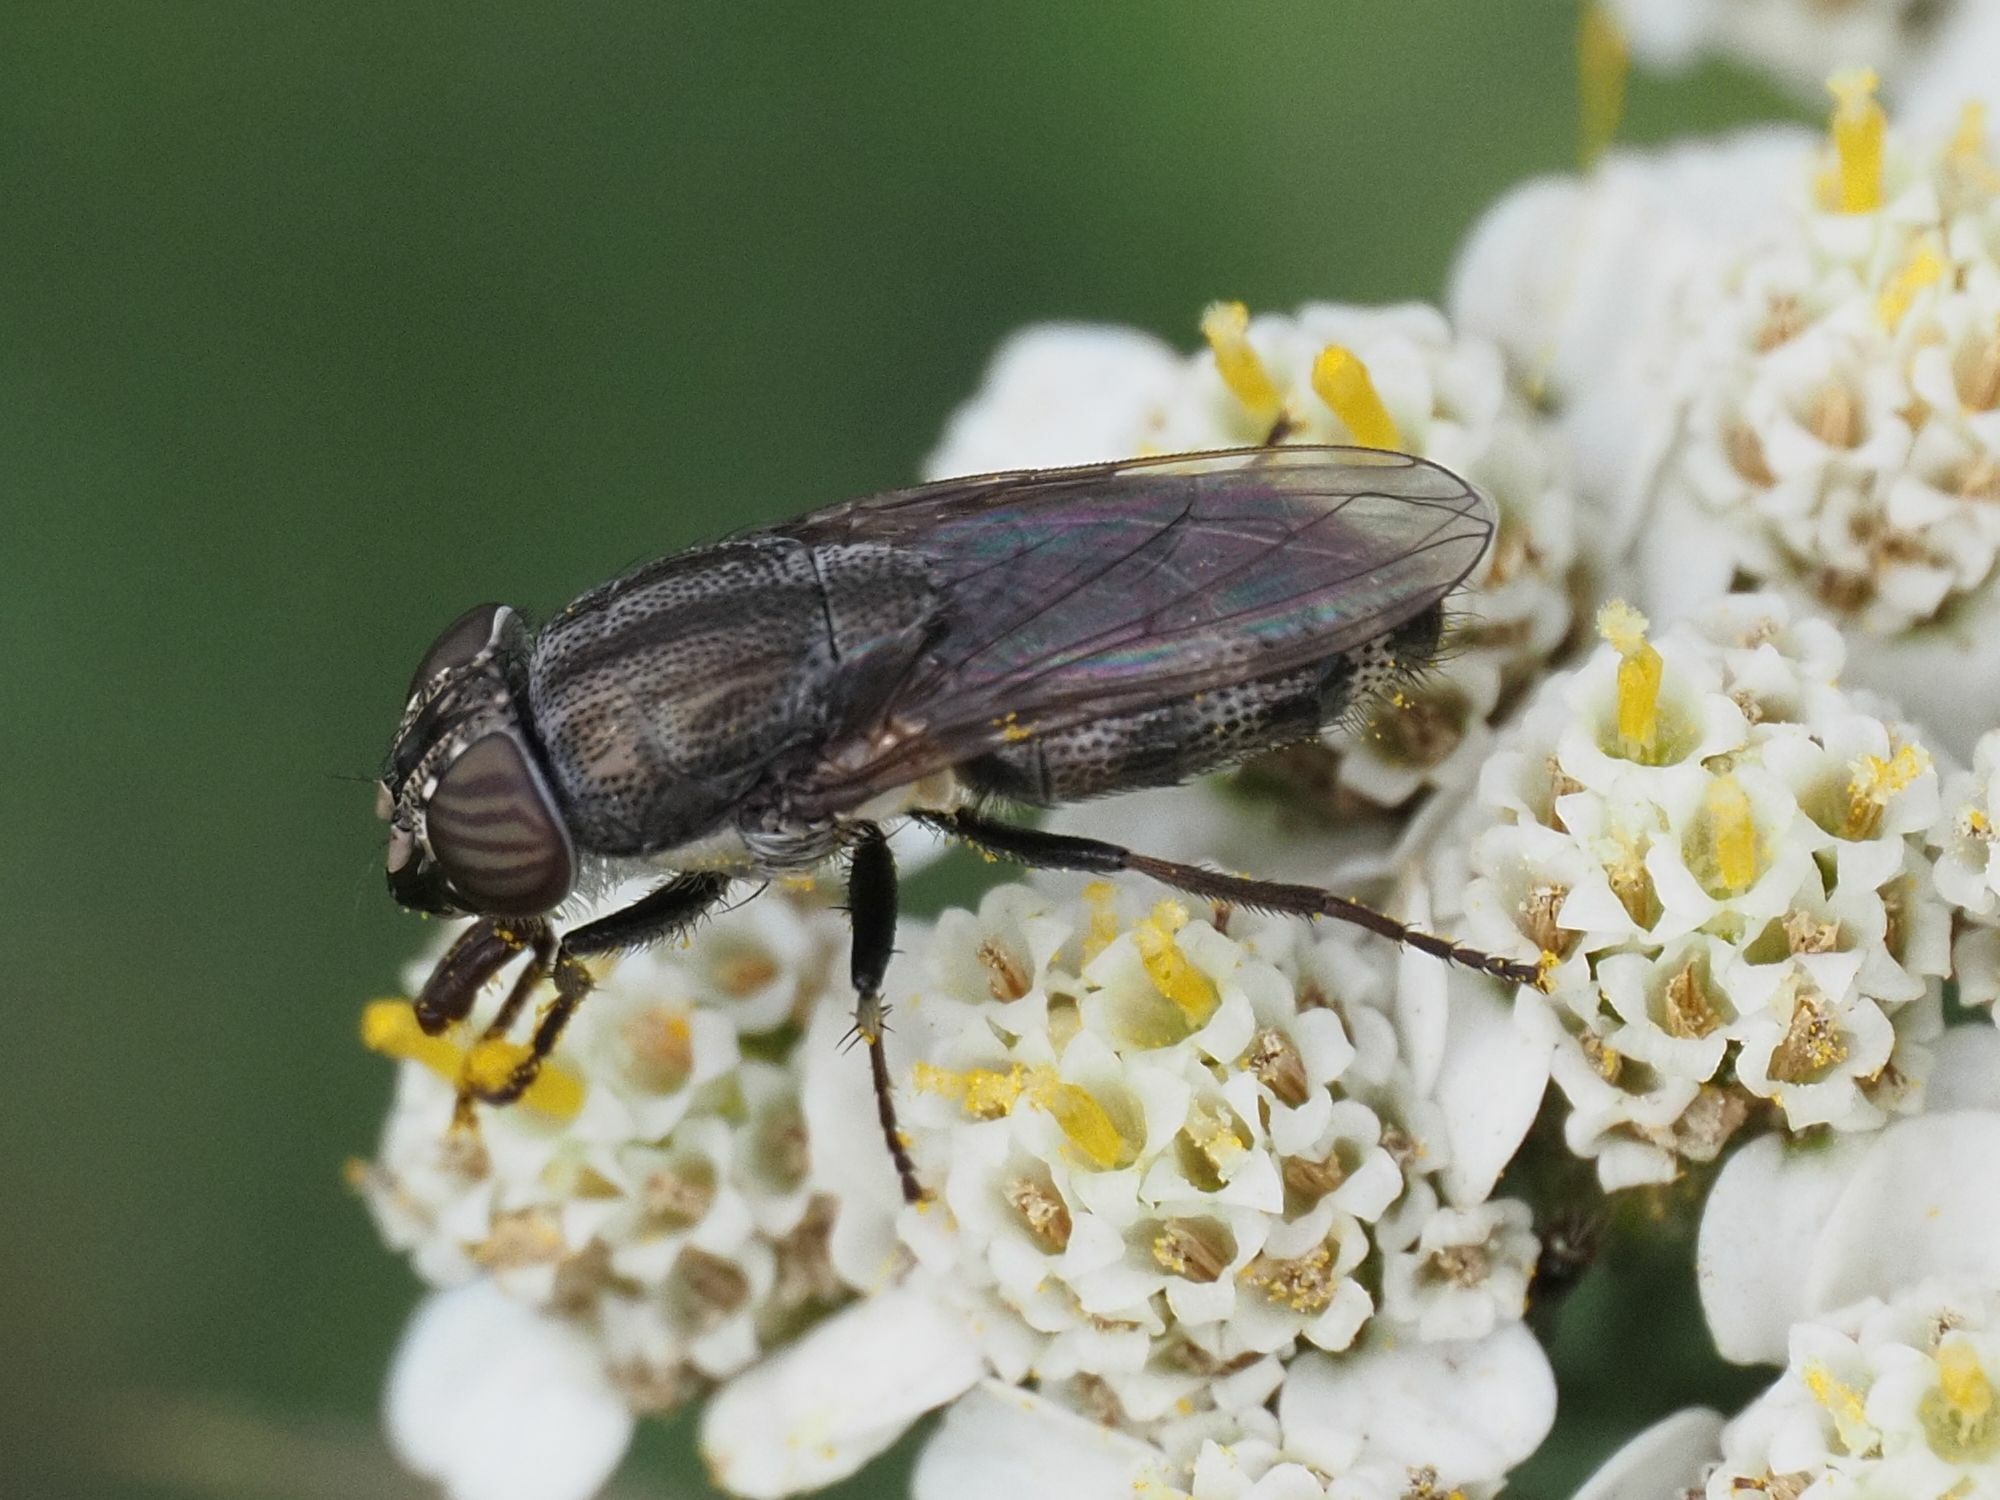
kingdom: Animalia
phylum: Arthropoda
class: Insecta
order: Diptera
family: Calliphoridae
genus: Stomorhina
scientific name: Stomorhina lunata
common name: Locust blowfly
